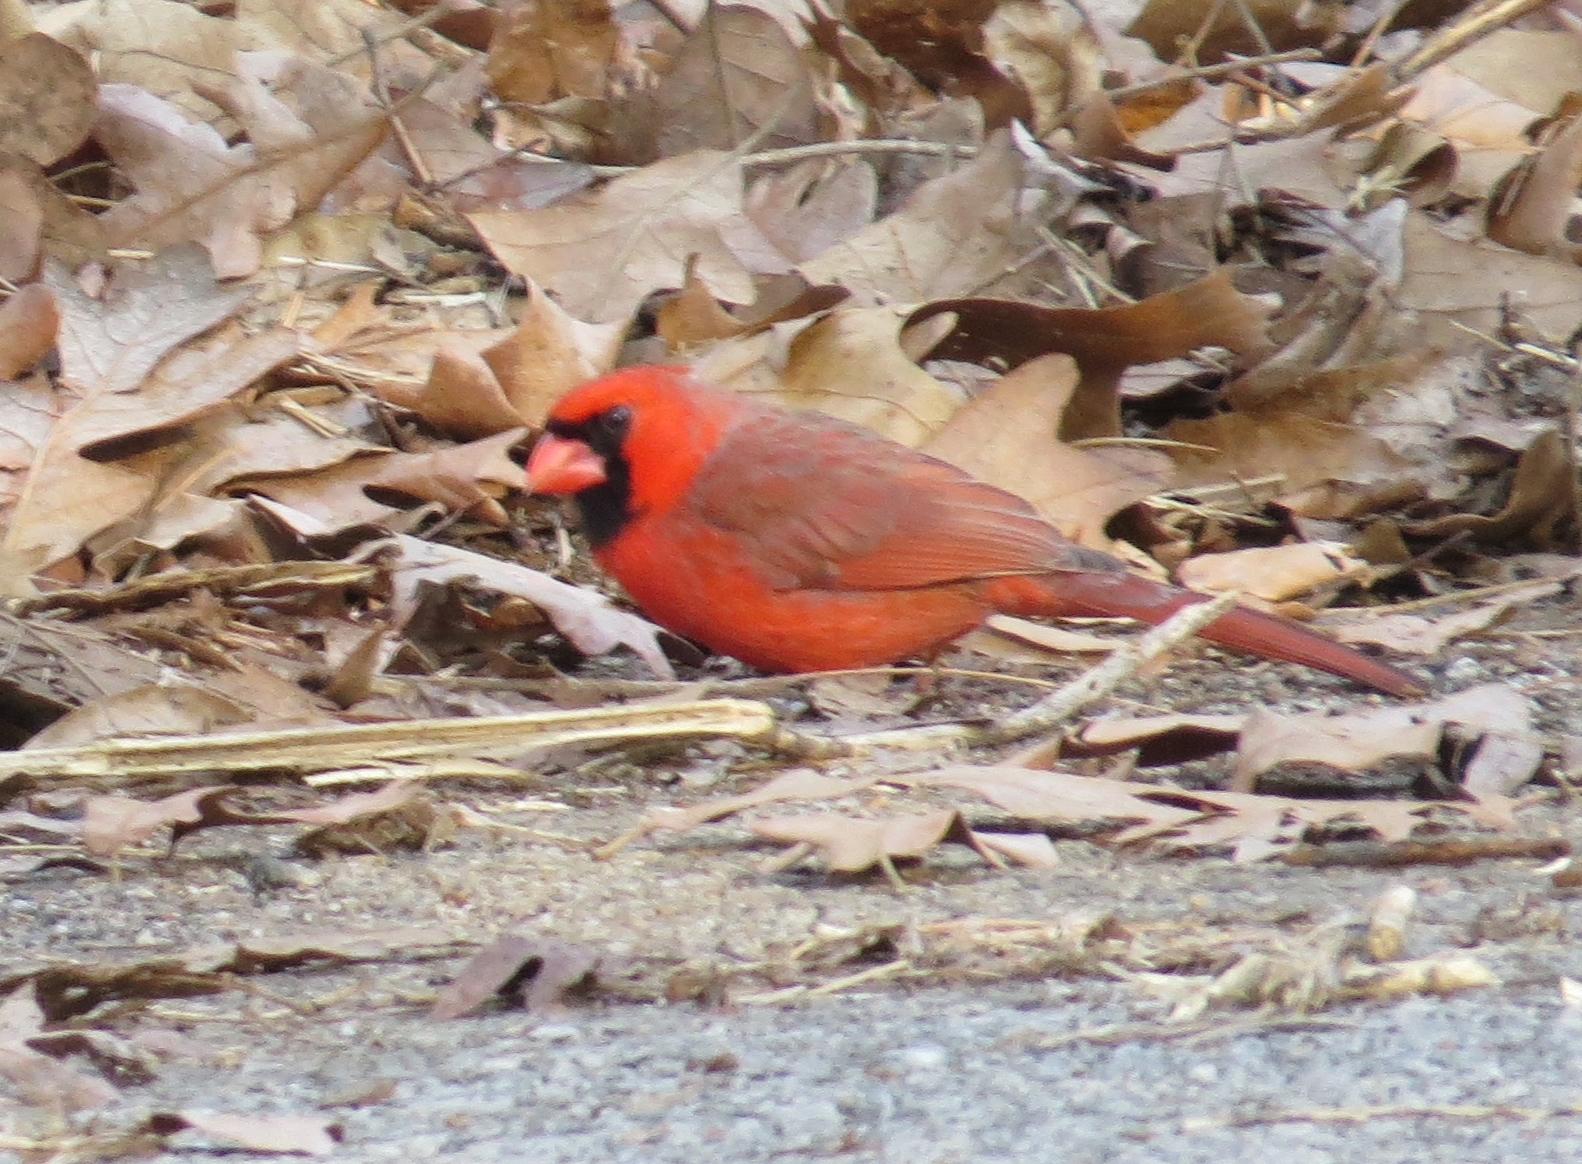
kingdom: Animalia
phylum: Chordata
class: Aves
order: Passeriformes
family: Cardinalidae
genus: Cardinalis
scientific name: Cardinalis cardinalis
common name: Northern cardinal
